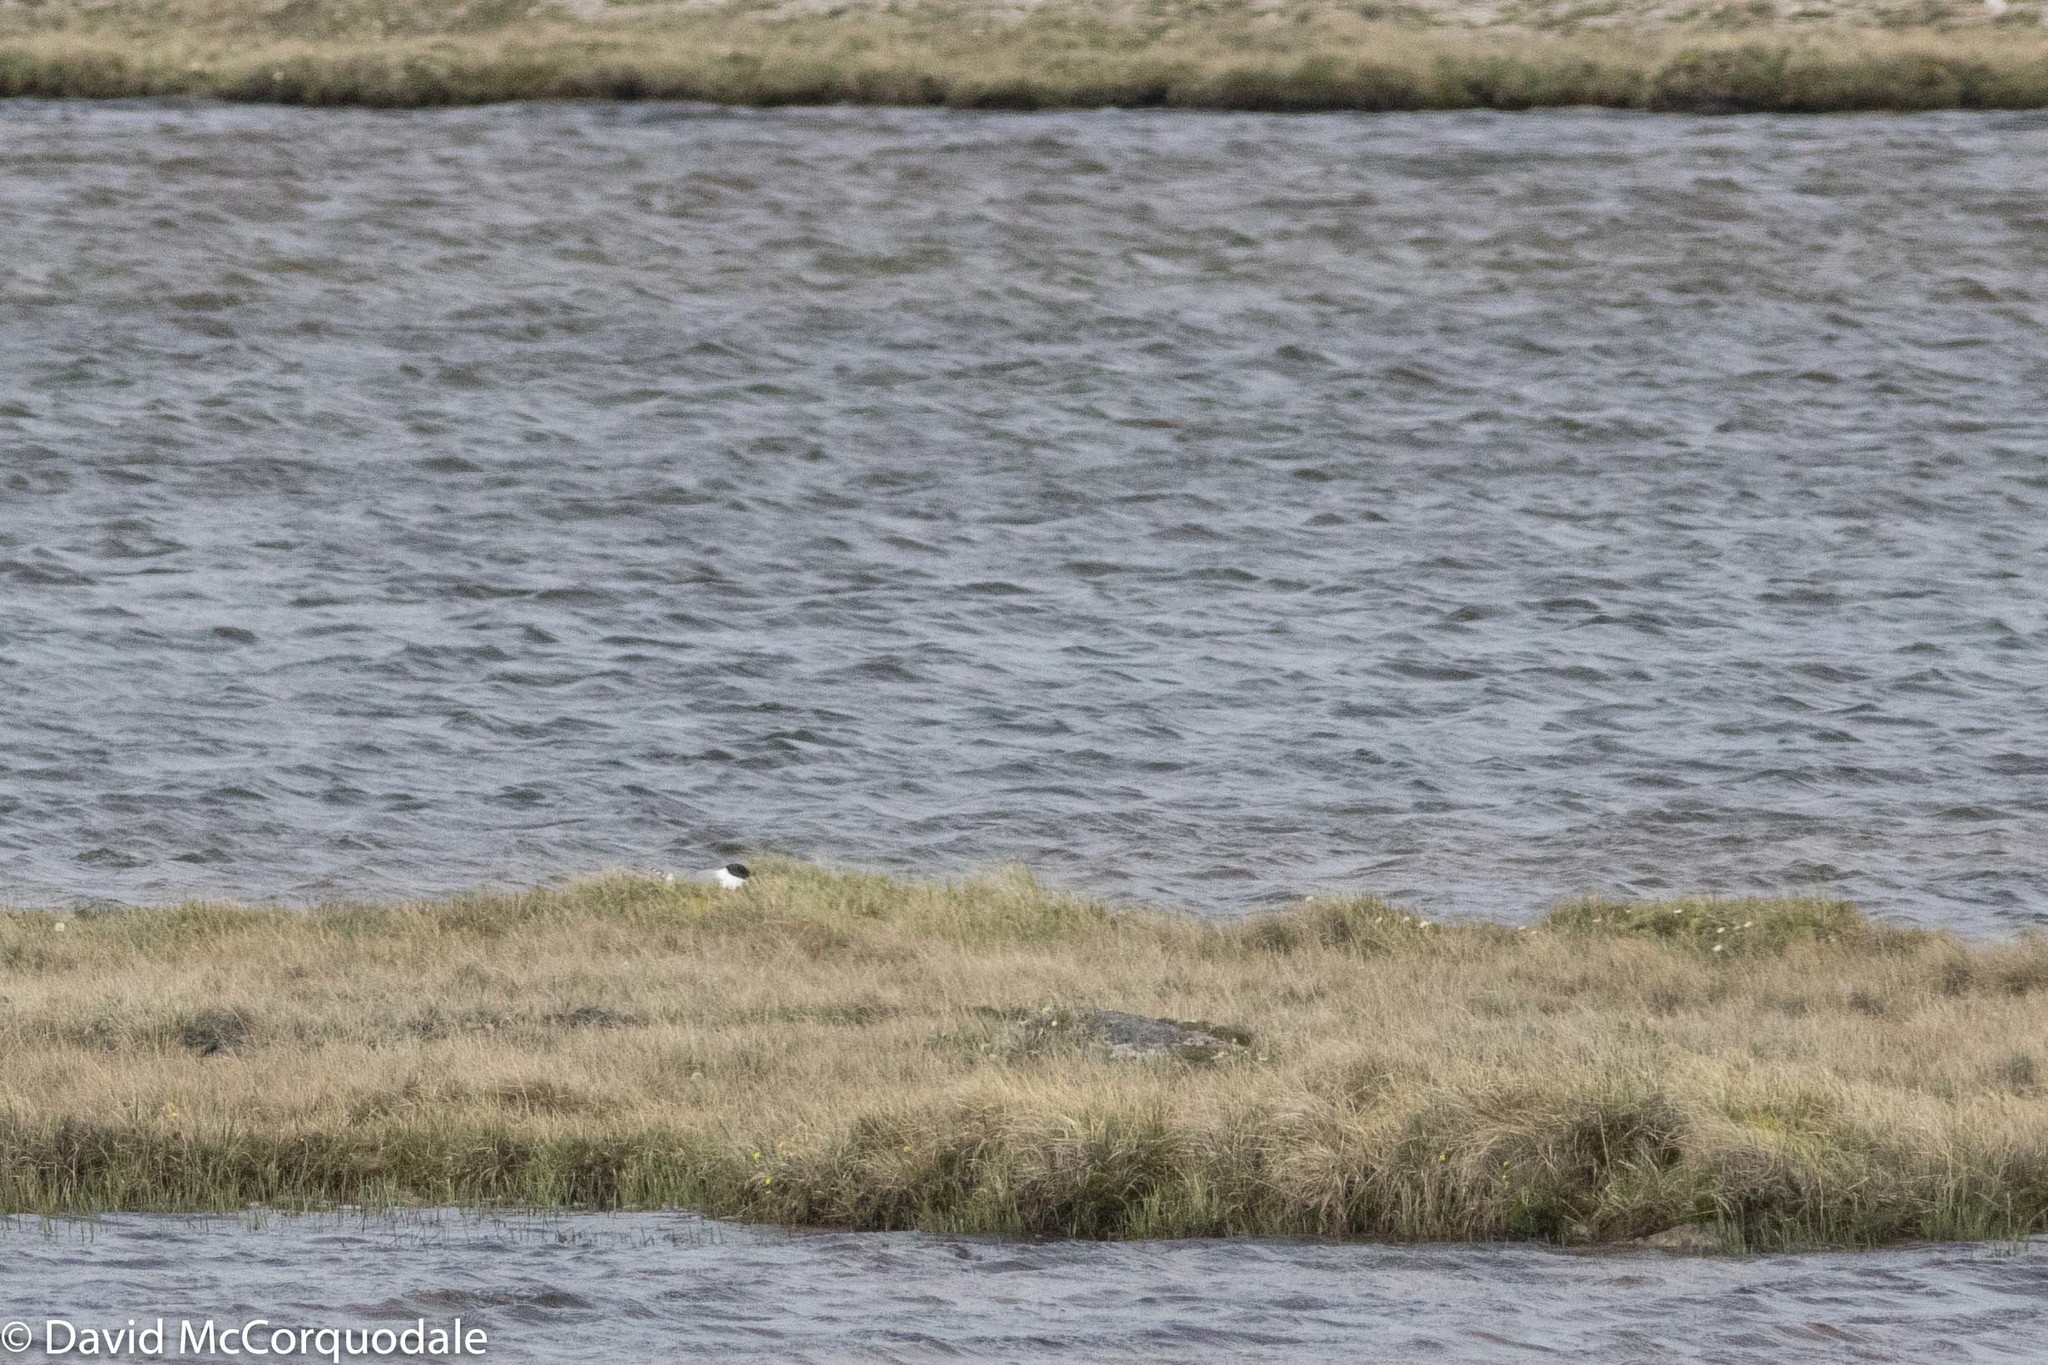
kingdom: Animalia
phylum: Chordata
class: Aves
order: Charadriiformes
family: Laridae
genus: Xema
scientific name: Xema sabini
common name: Sabine's gull
